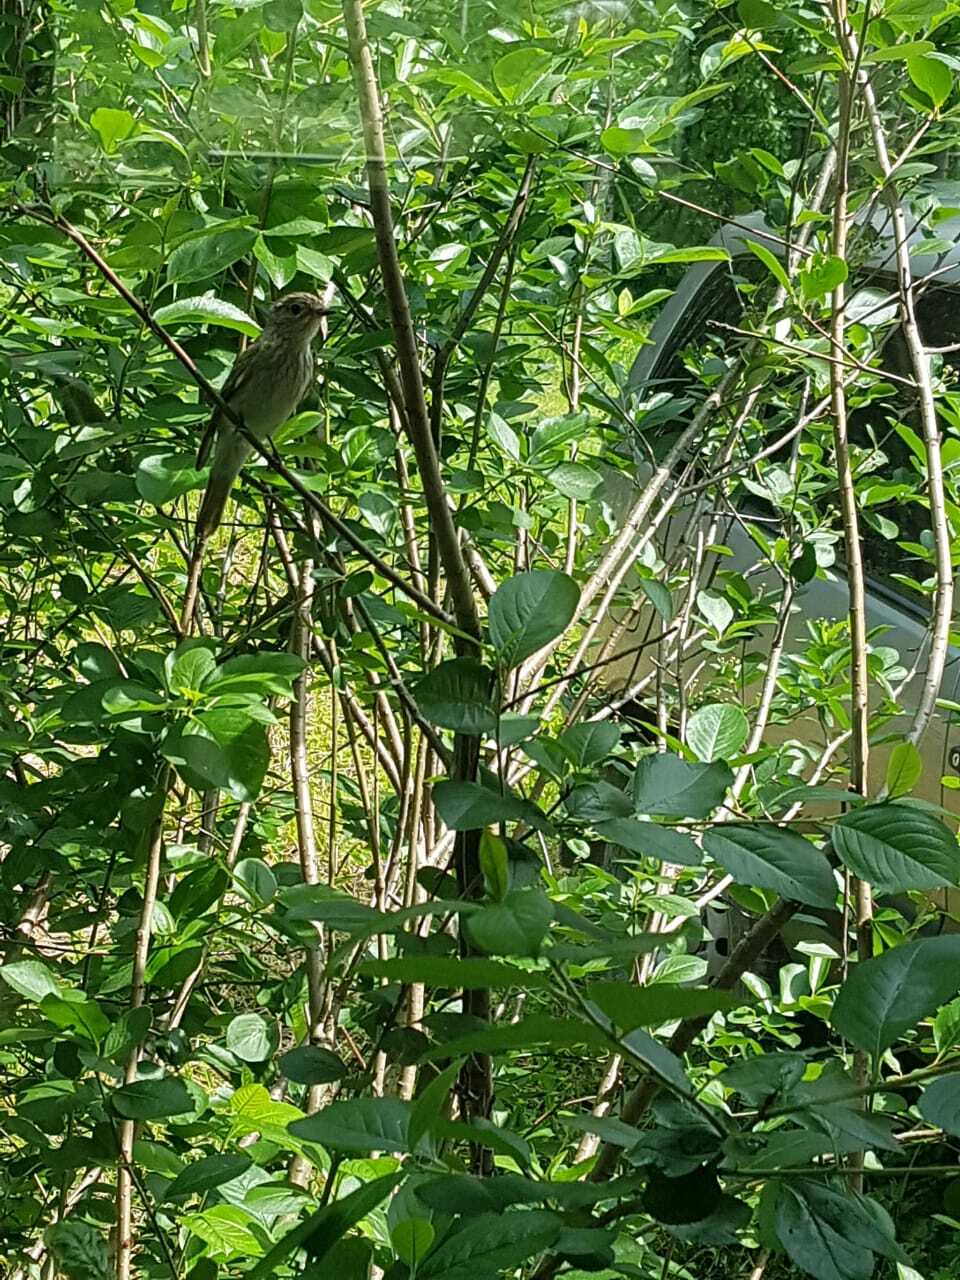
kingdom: Animalia
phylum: Chordata
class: Aves
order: Passeriformes
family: Muscicapidae
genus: Muscicapa
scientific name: Muscicapa striata
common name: Spotted flycatcher
